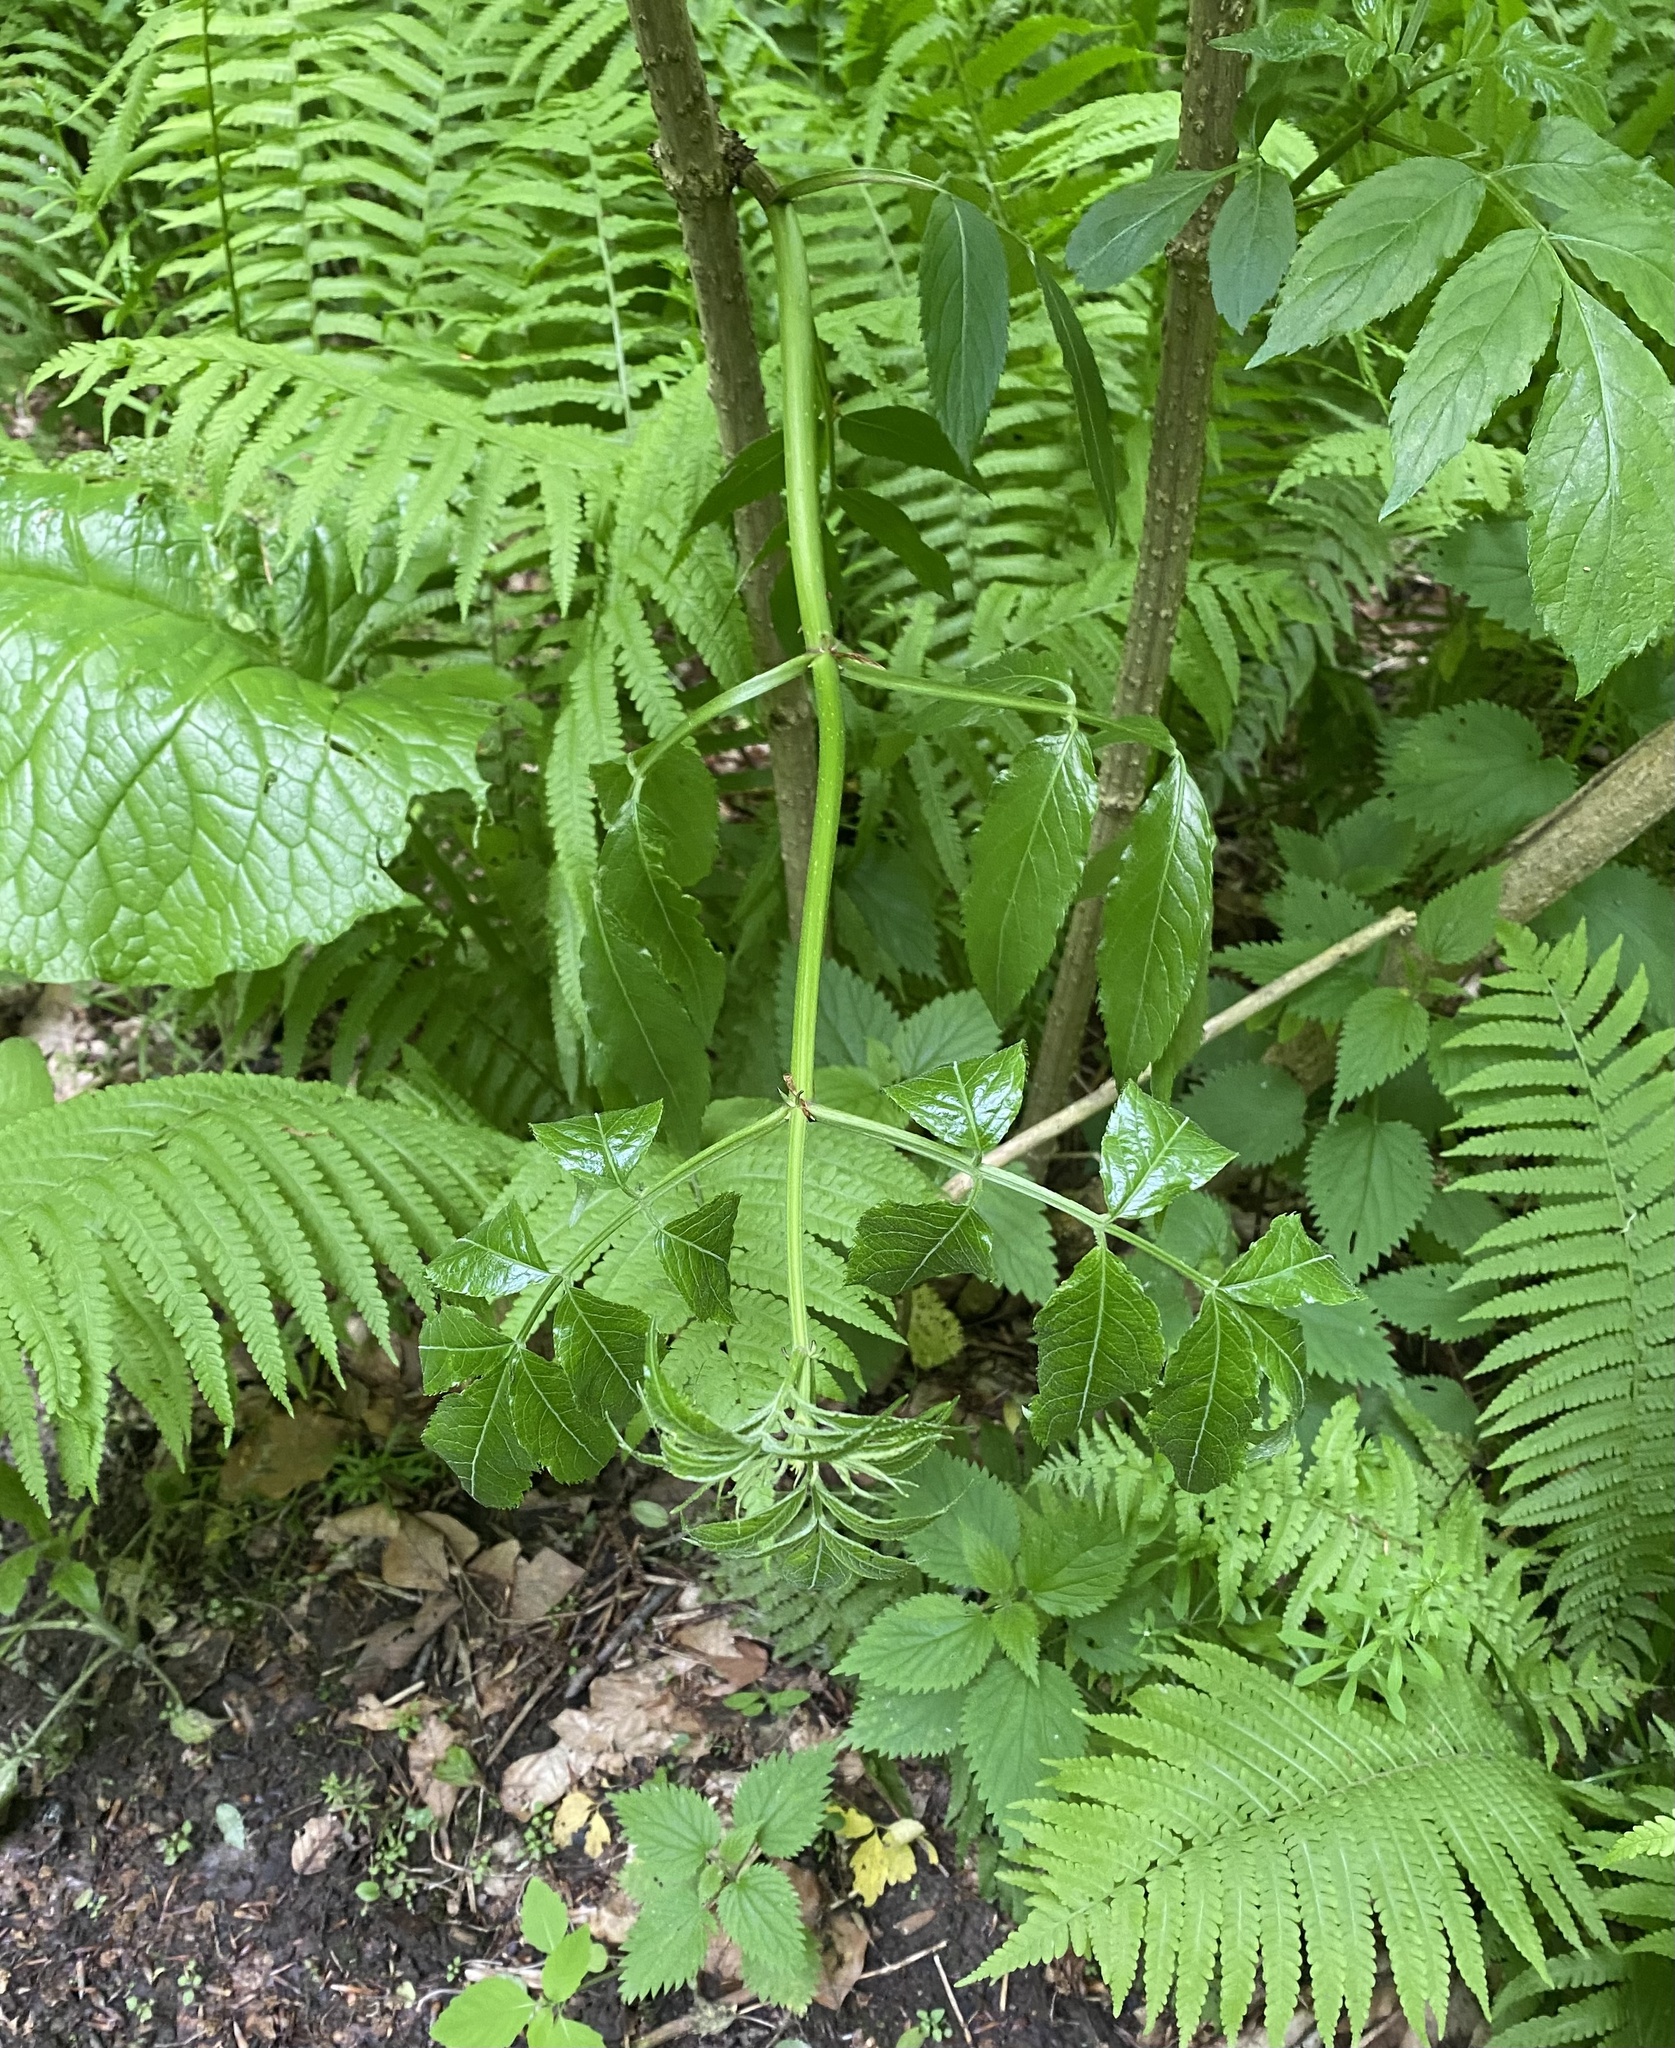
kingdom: Plantae
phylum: Tracheophyta
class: Polypodiopsida
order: Polypodiales
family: Onocleaceae
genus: Matteuccia
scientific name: Matteuccia struthiopteris
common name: Ostrich fern
